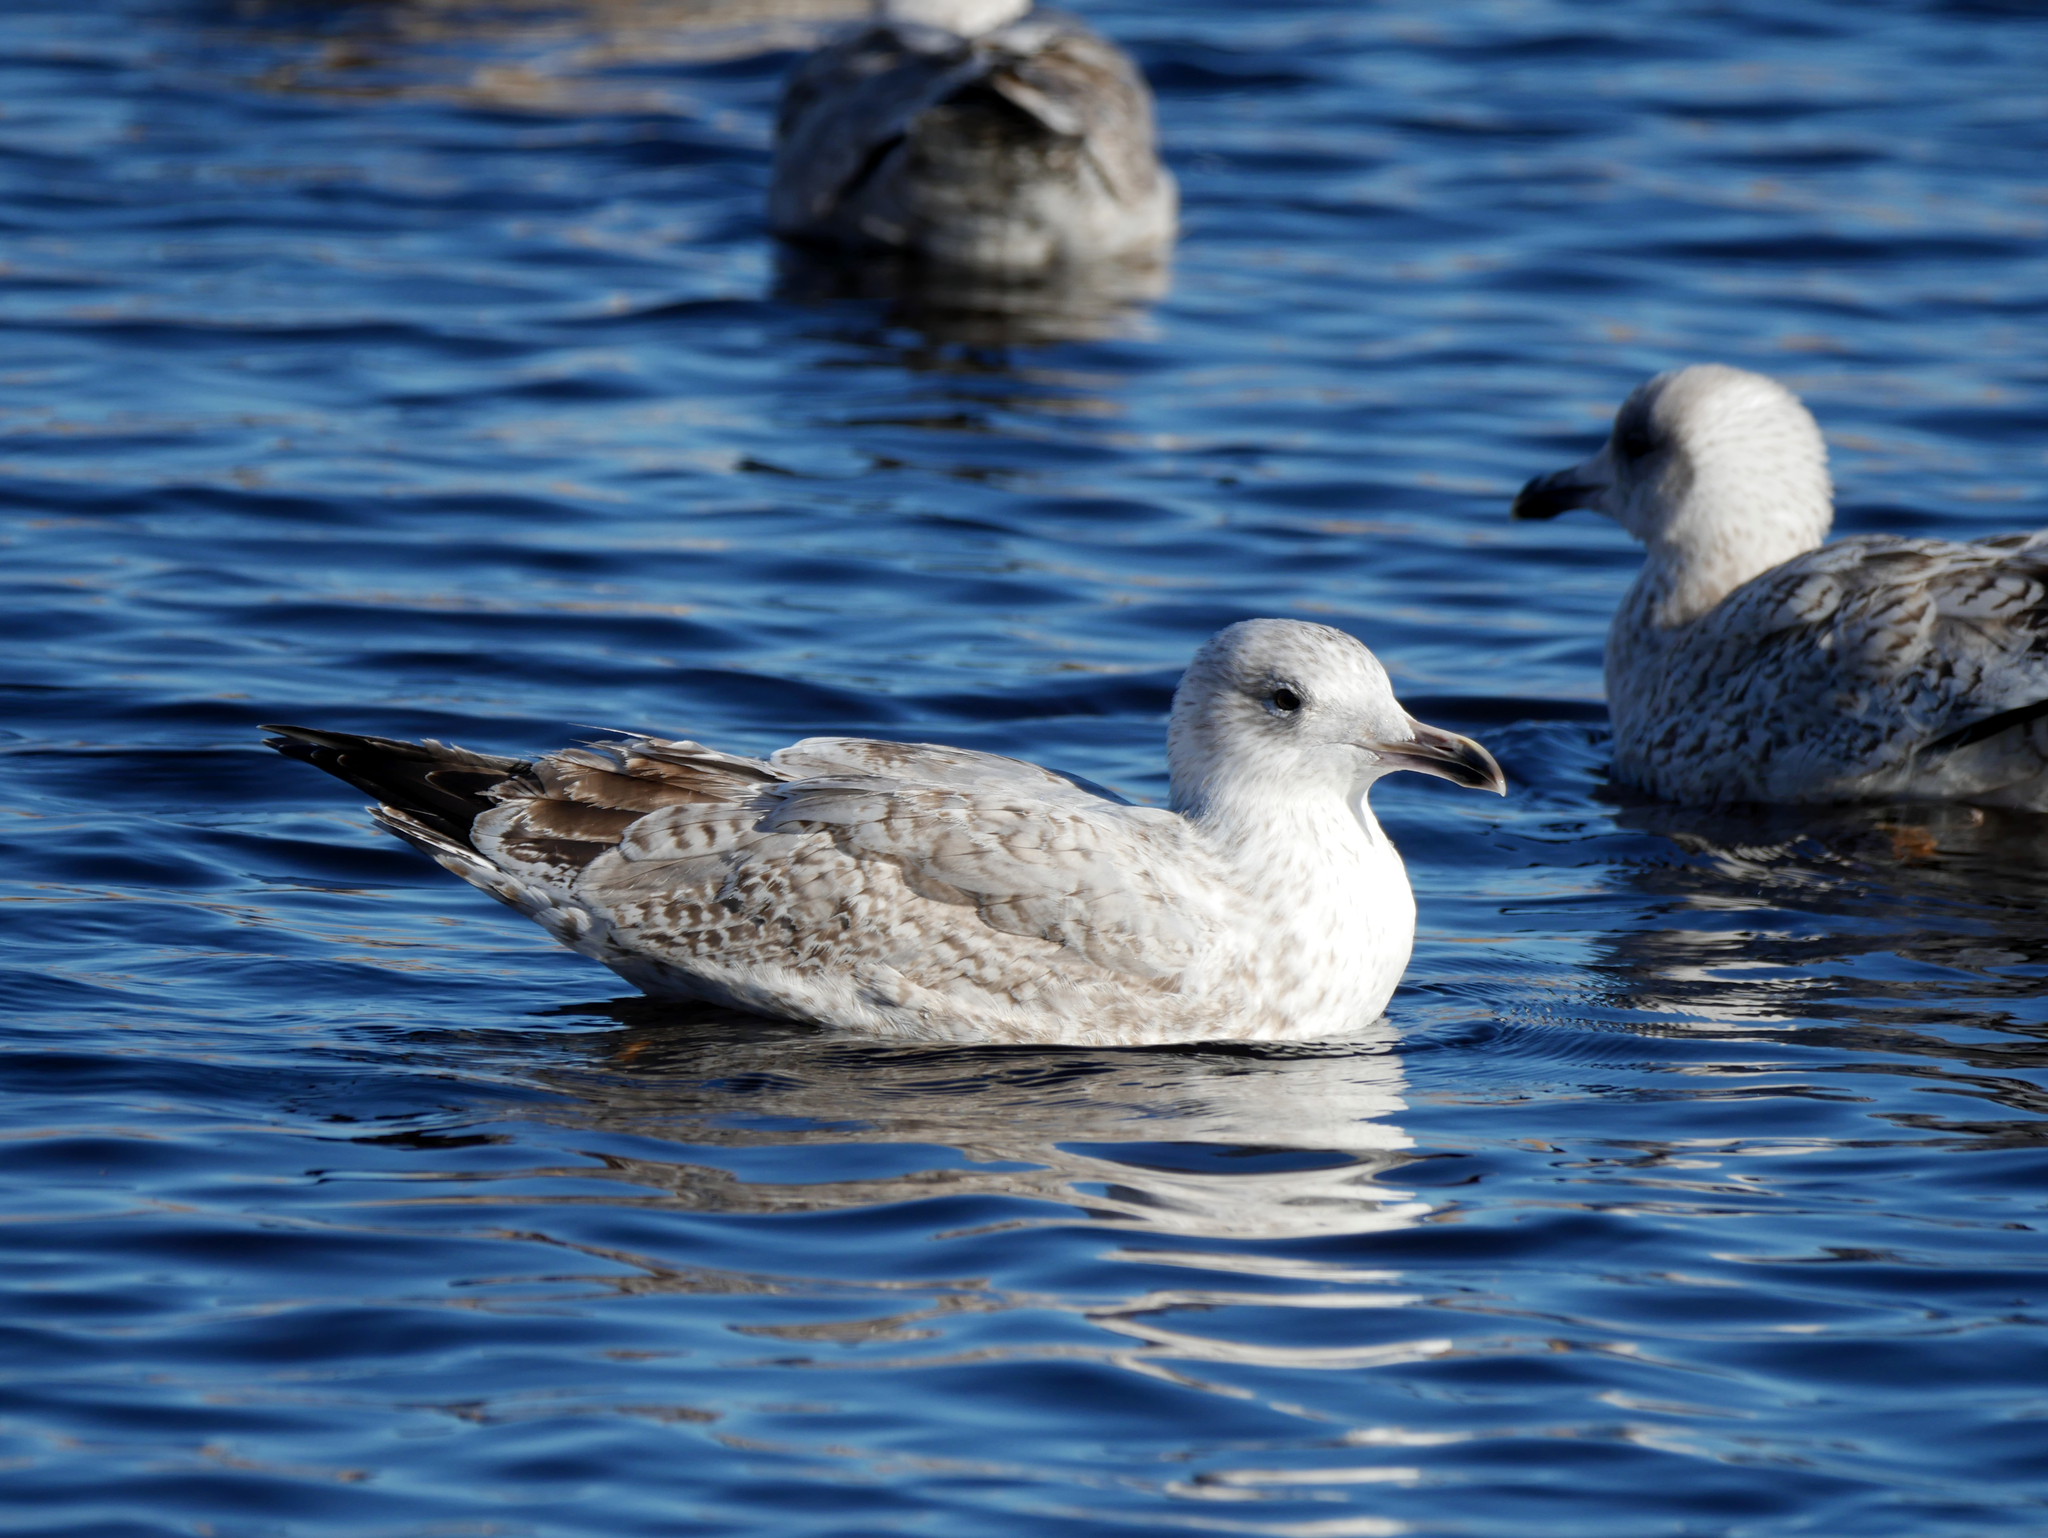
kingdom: Animalia
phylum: Chordata
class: Aves
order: Charadriiformes
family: Laridae
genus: Larus
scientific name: Larus argentatus
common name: Herring gull
